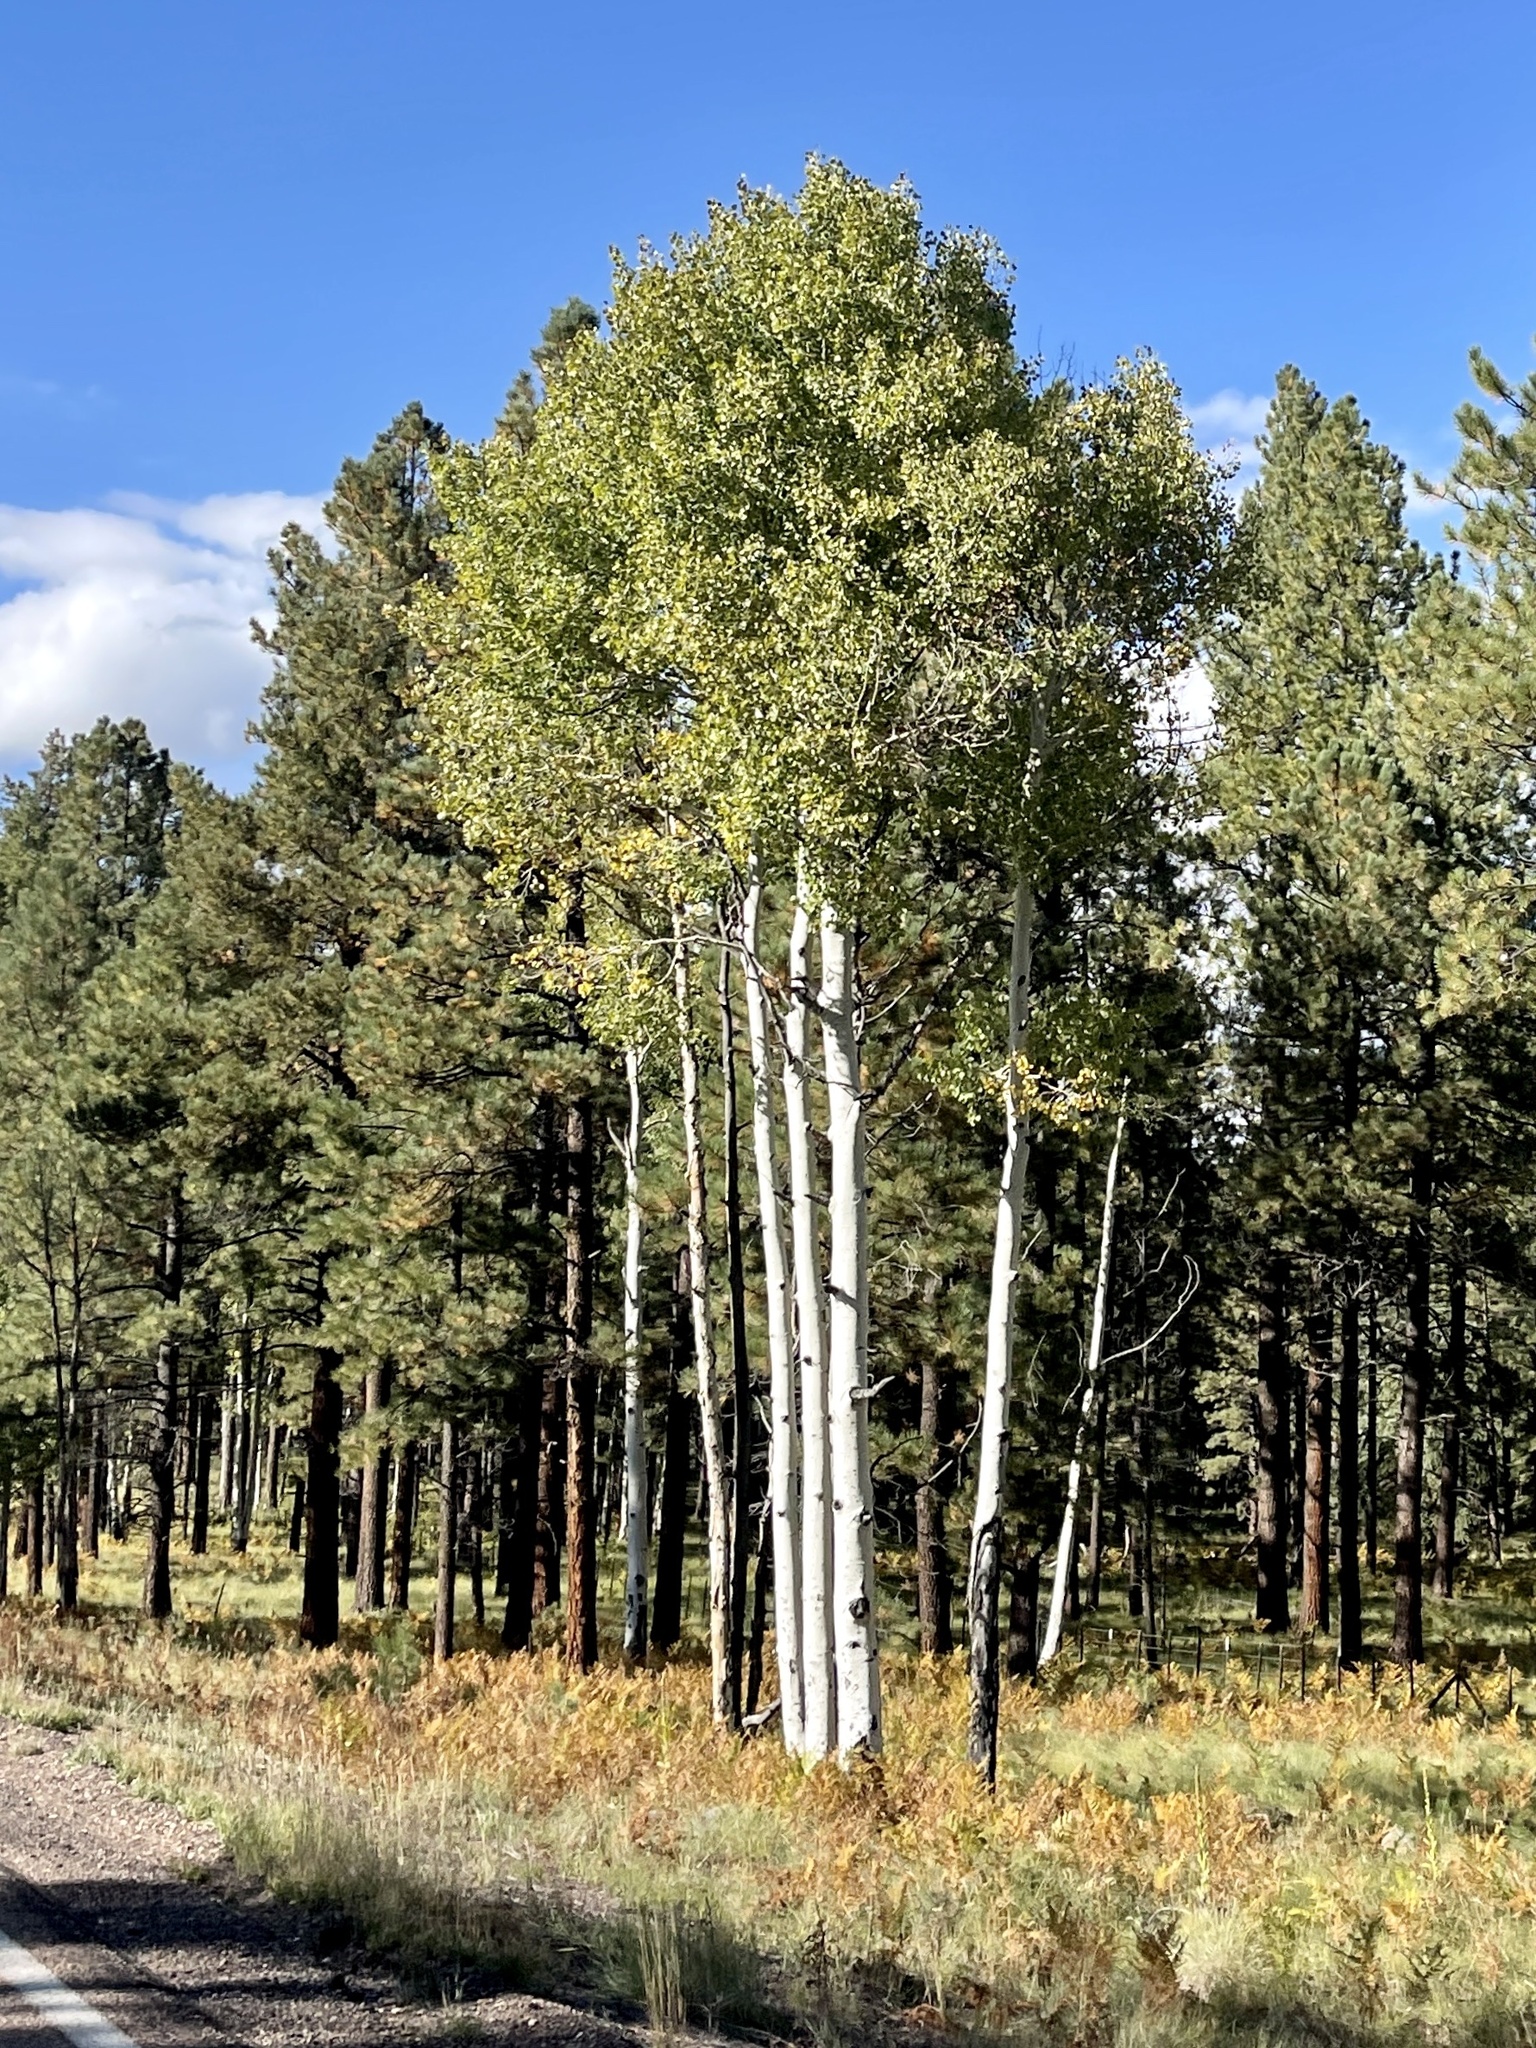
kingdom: Plantae
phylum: Tracheophyta
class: Magnoliopsida
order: Malpighiales
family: Salicaceae
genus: Populus
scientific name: Populus tremuloides
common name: Quaking aspen
